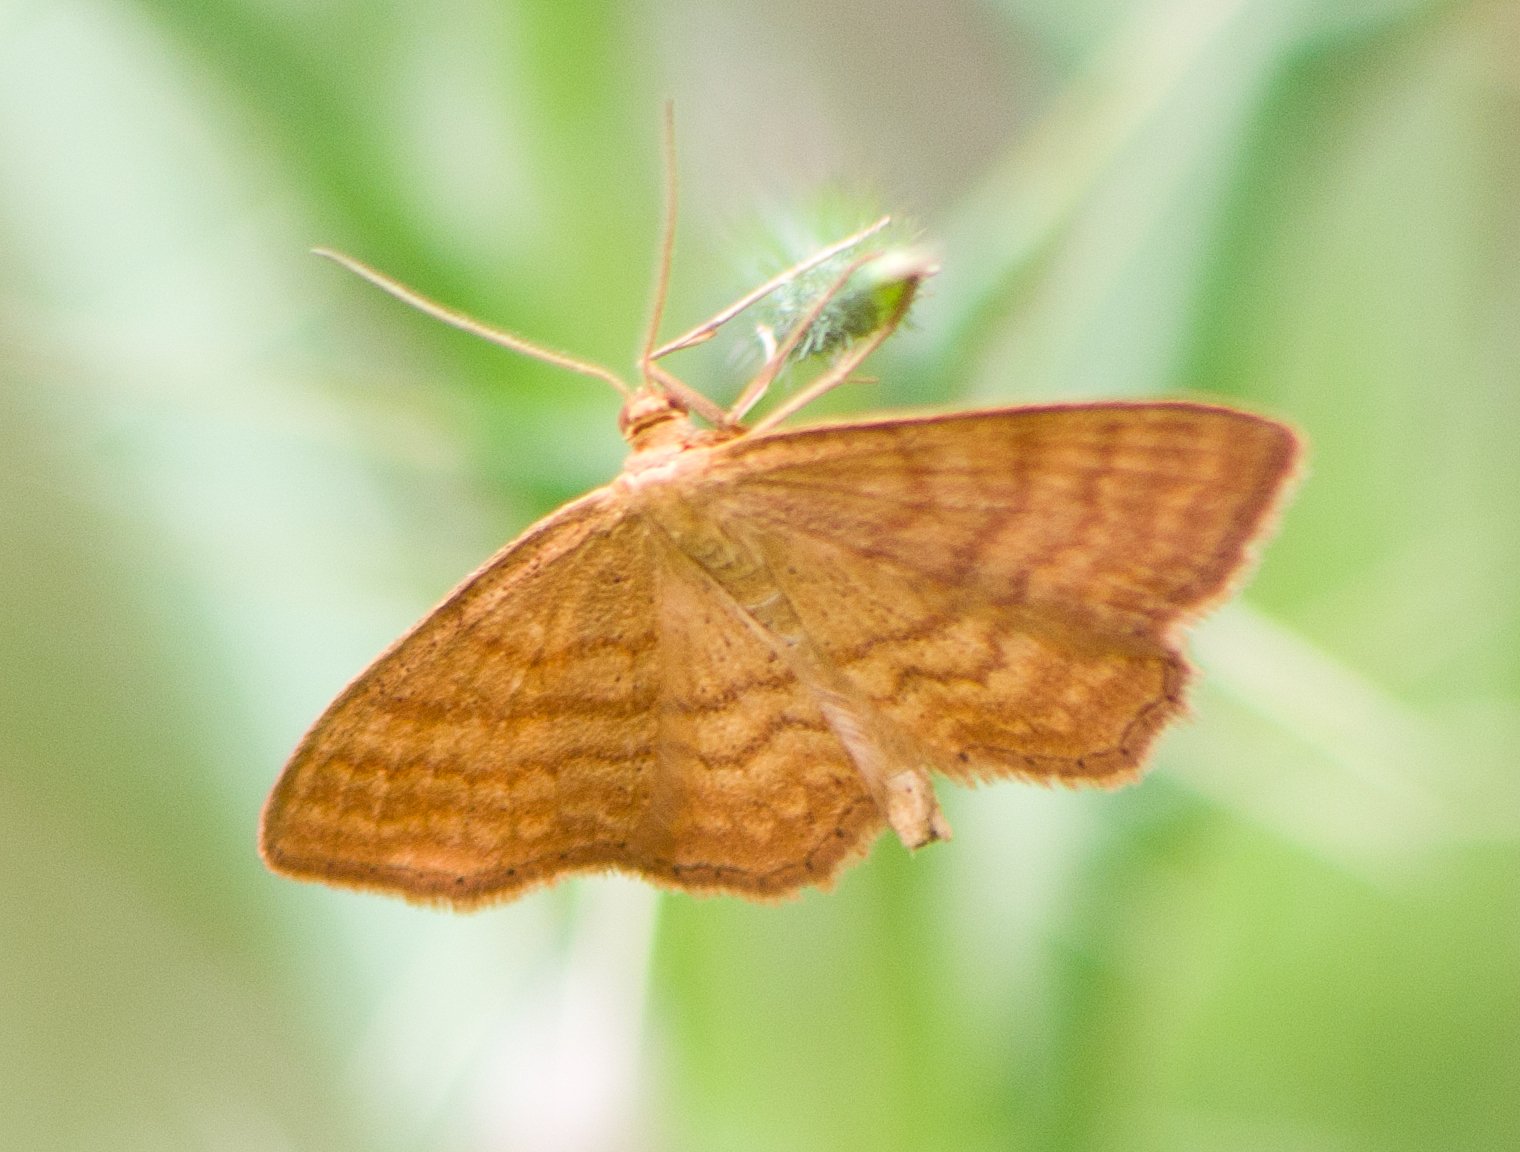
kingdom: Animalia
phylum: Arthropoda
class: Insecta
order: Lepidoptera
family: Geometridae
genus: Idaea
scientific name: Idaea ochrata
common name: Bright wave
